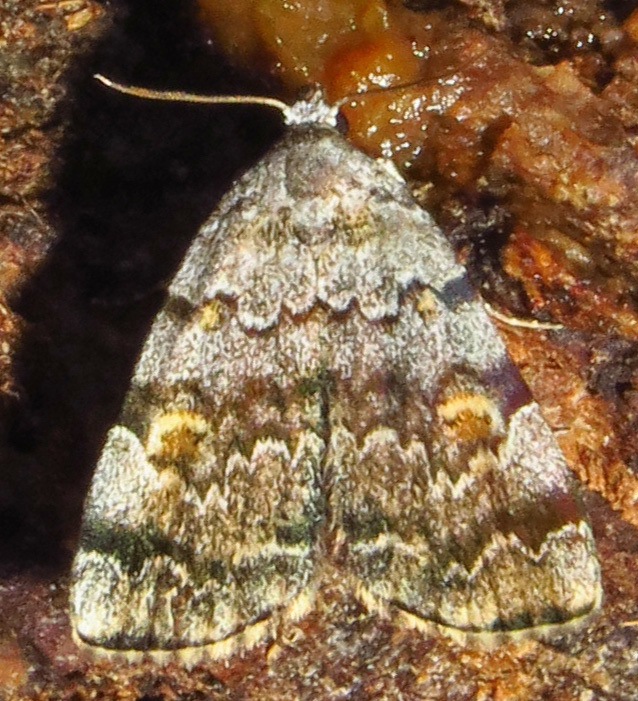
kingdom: Animalia
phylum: Arthropoda
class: Insecta
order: Lepidoptera
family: Erebidae
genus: Idia
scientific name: Idia americalis
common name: American idia moth
